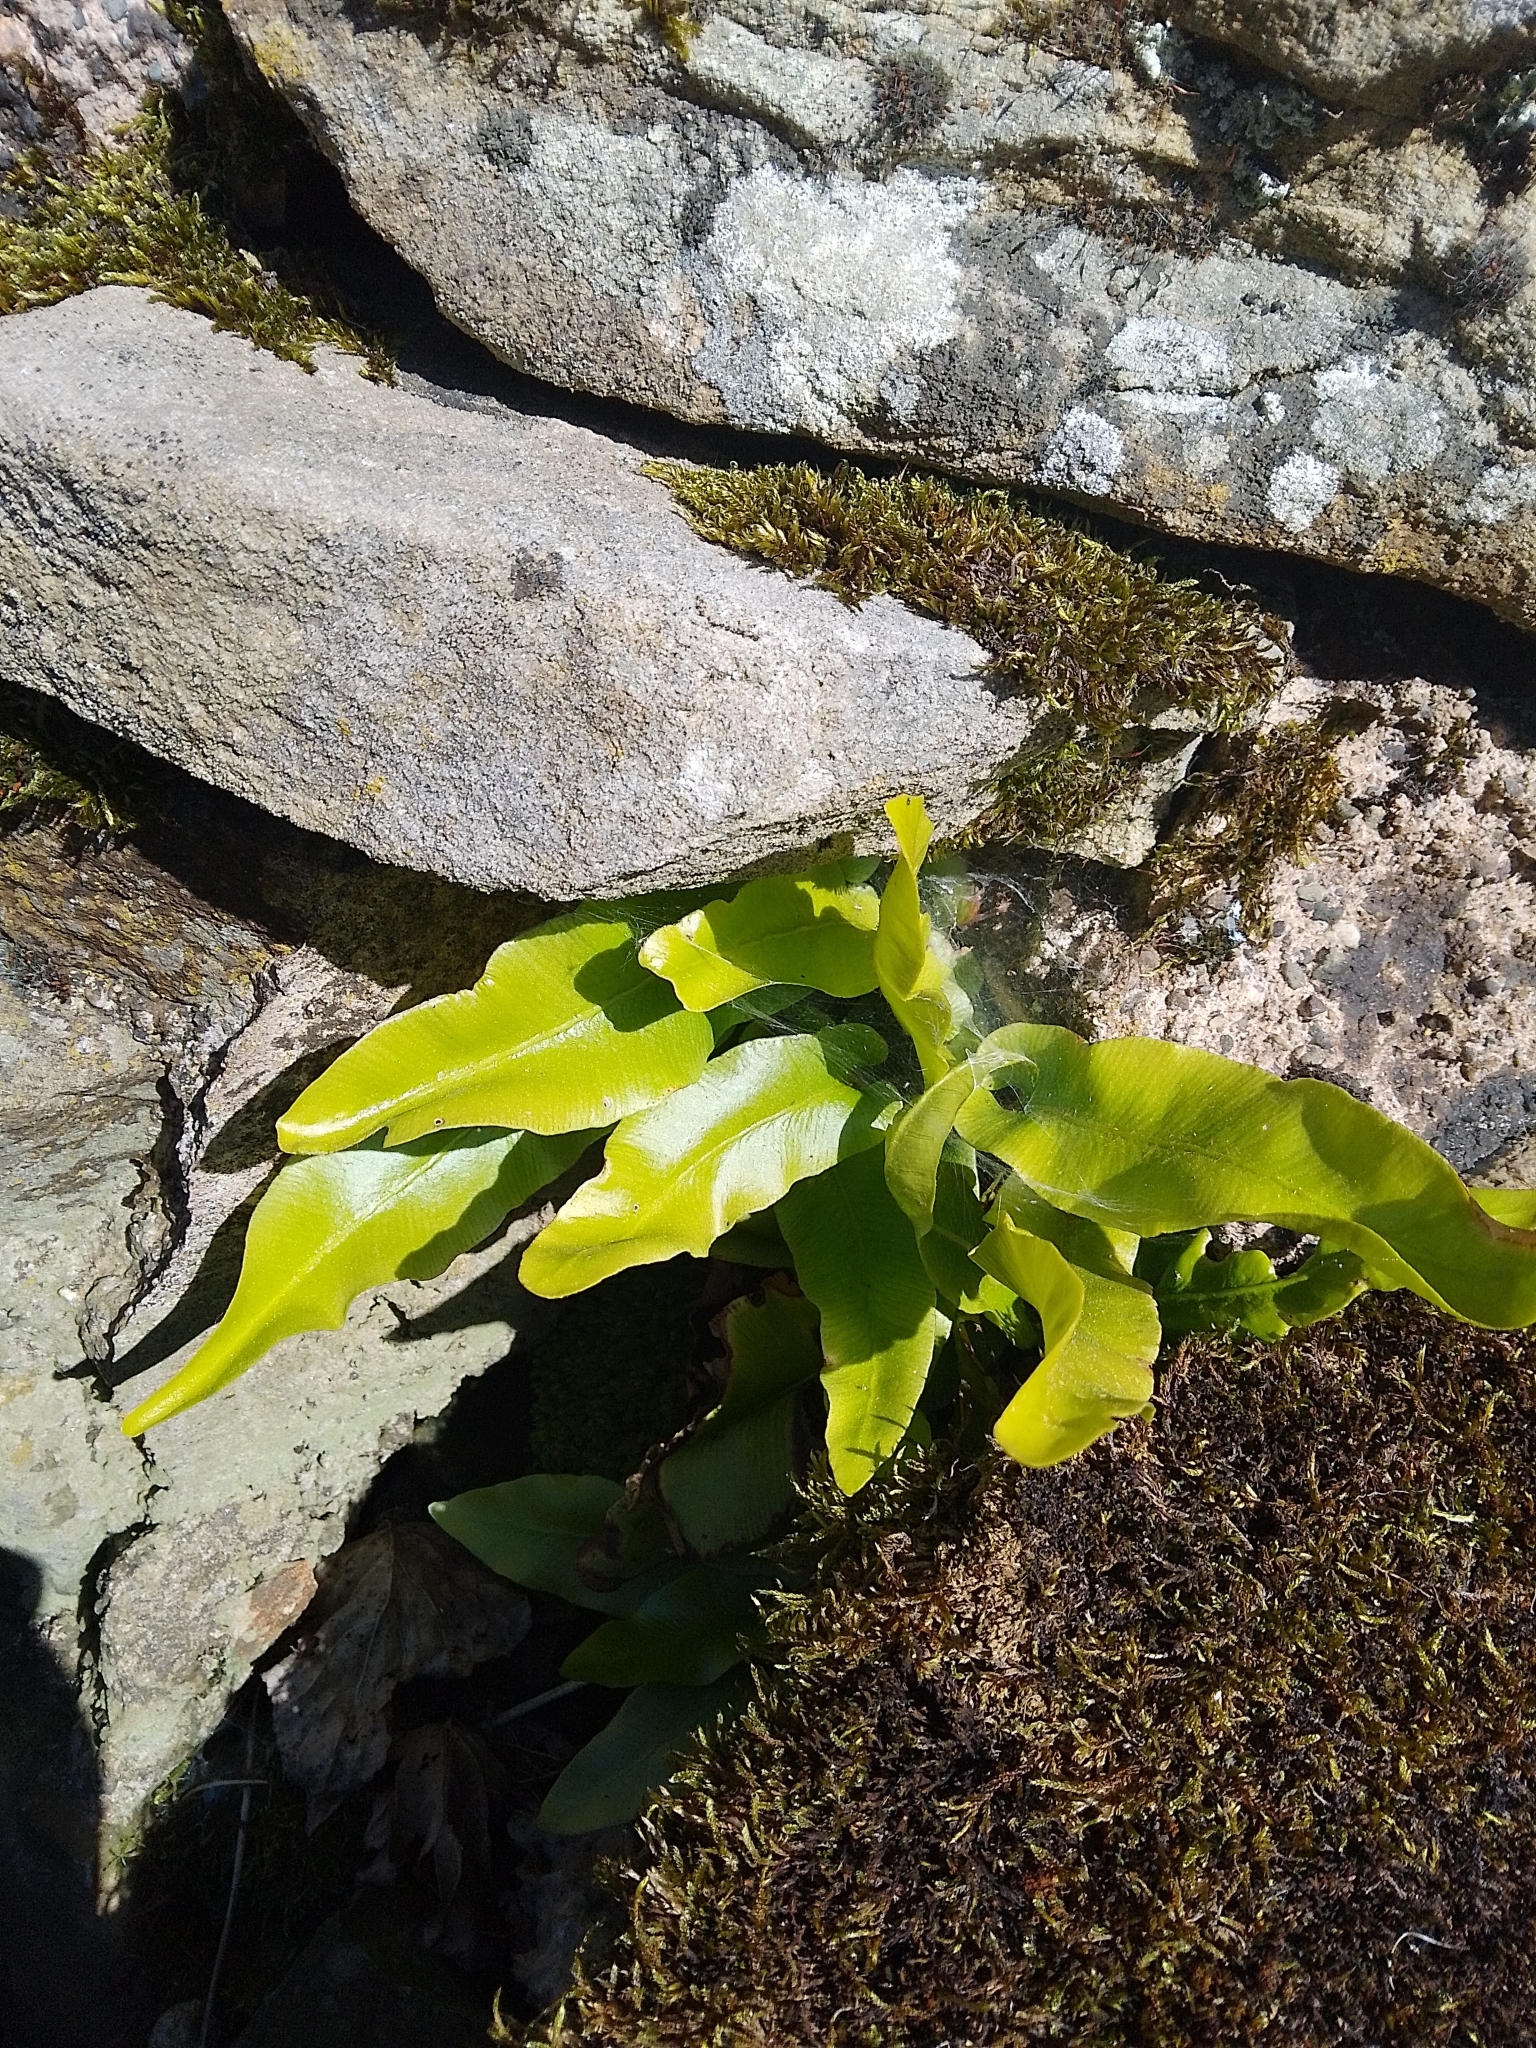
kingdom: Plantae
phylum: Tracheophyta
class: Polypodiopsida
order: Polypodiales
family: Aspleniaceae
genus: Asplenium
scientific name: Asplenium scolopendrium
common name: Hart's-tongue fern
